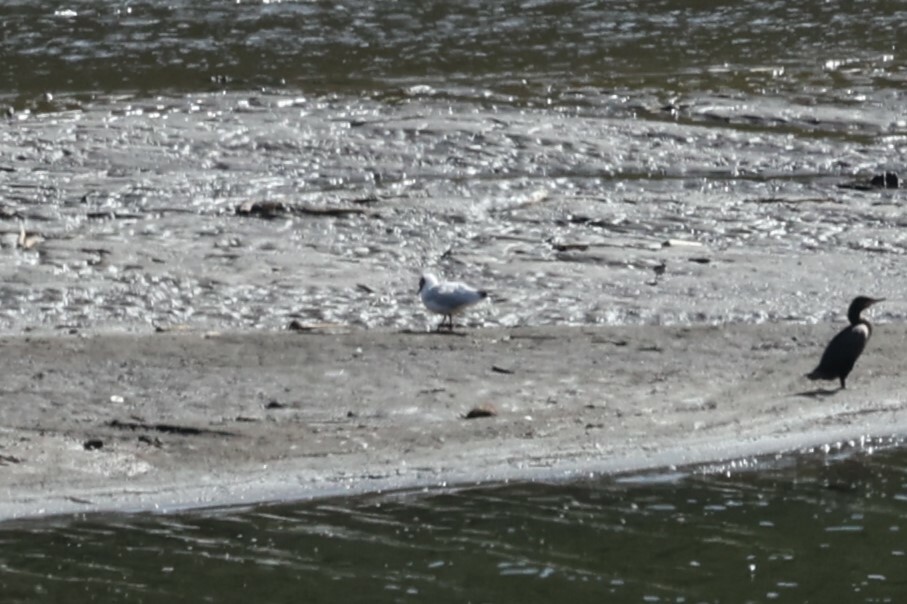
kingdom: Animalia
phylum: Chordata
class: Aves
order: Charadriiformes
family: Laridae
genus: Chroicocephalus
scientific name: Chroicocephalus serranus
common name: Andean gull
